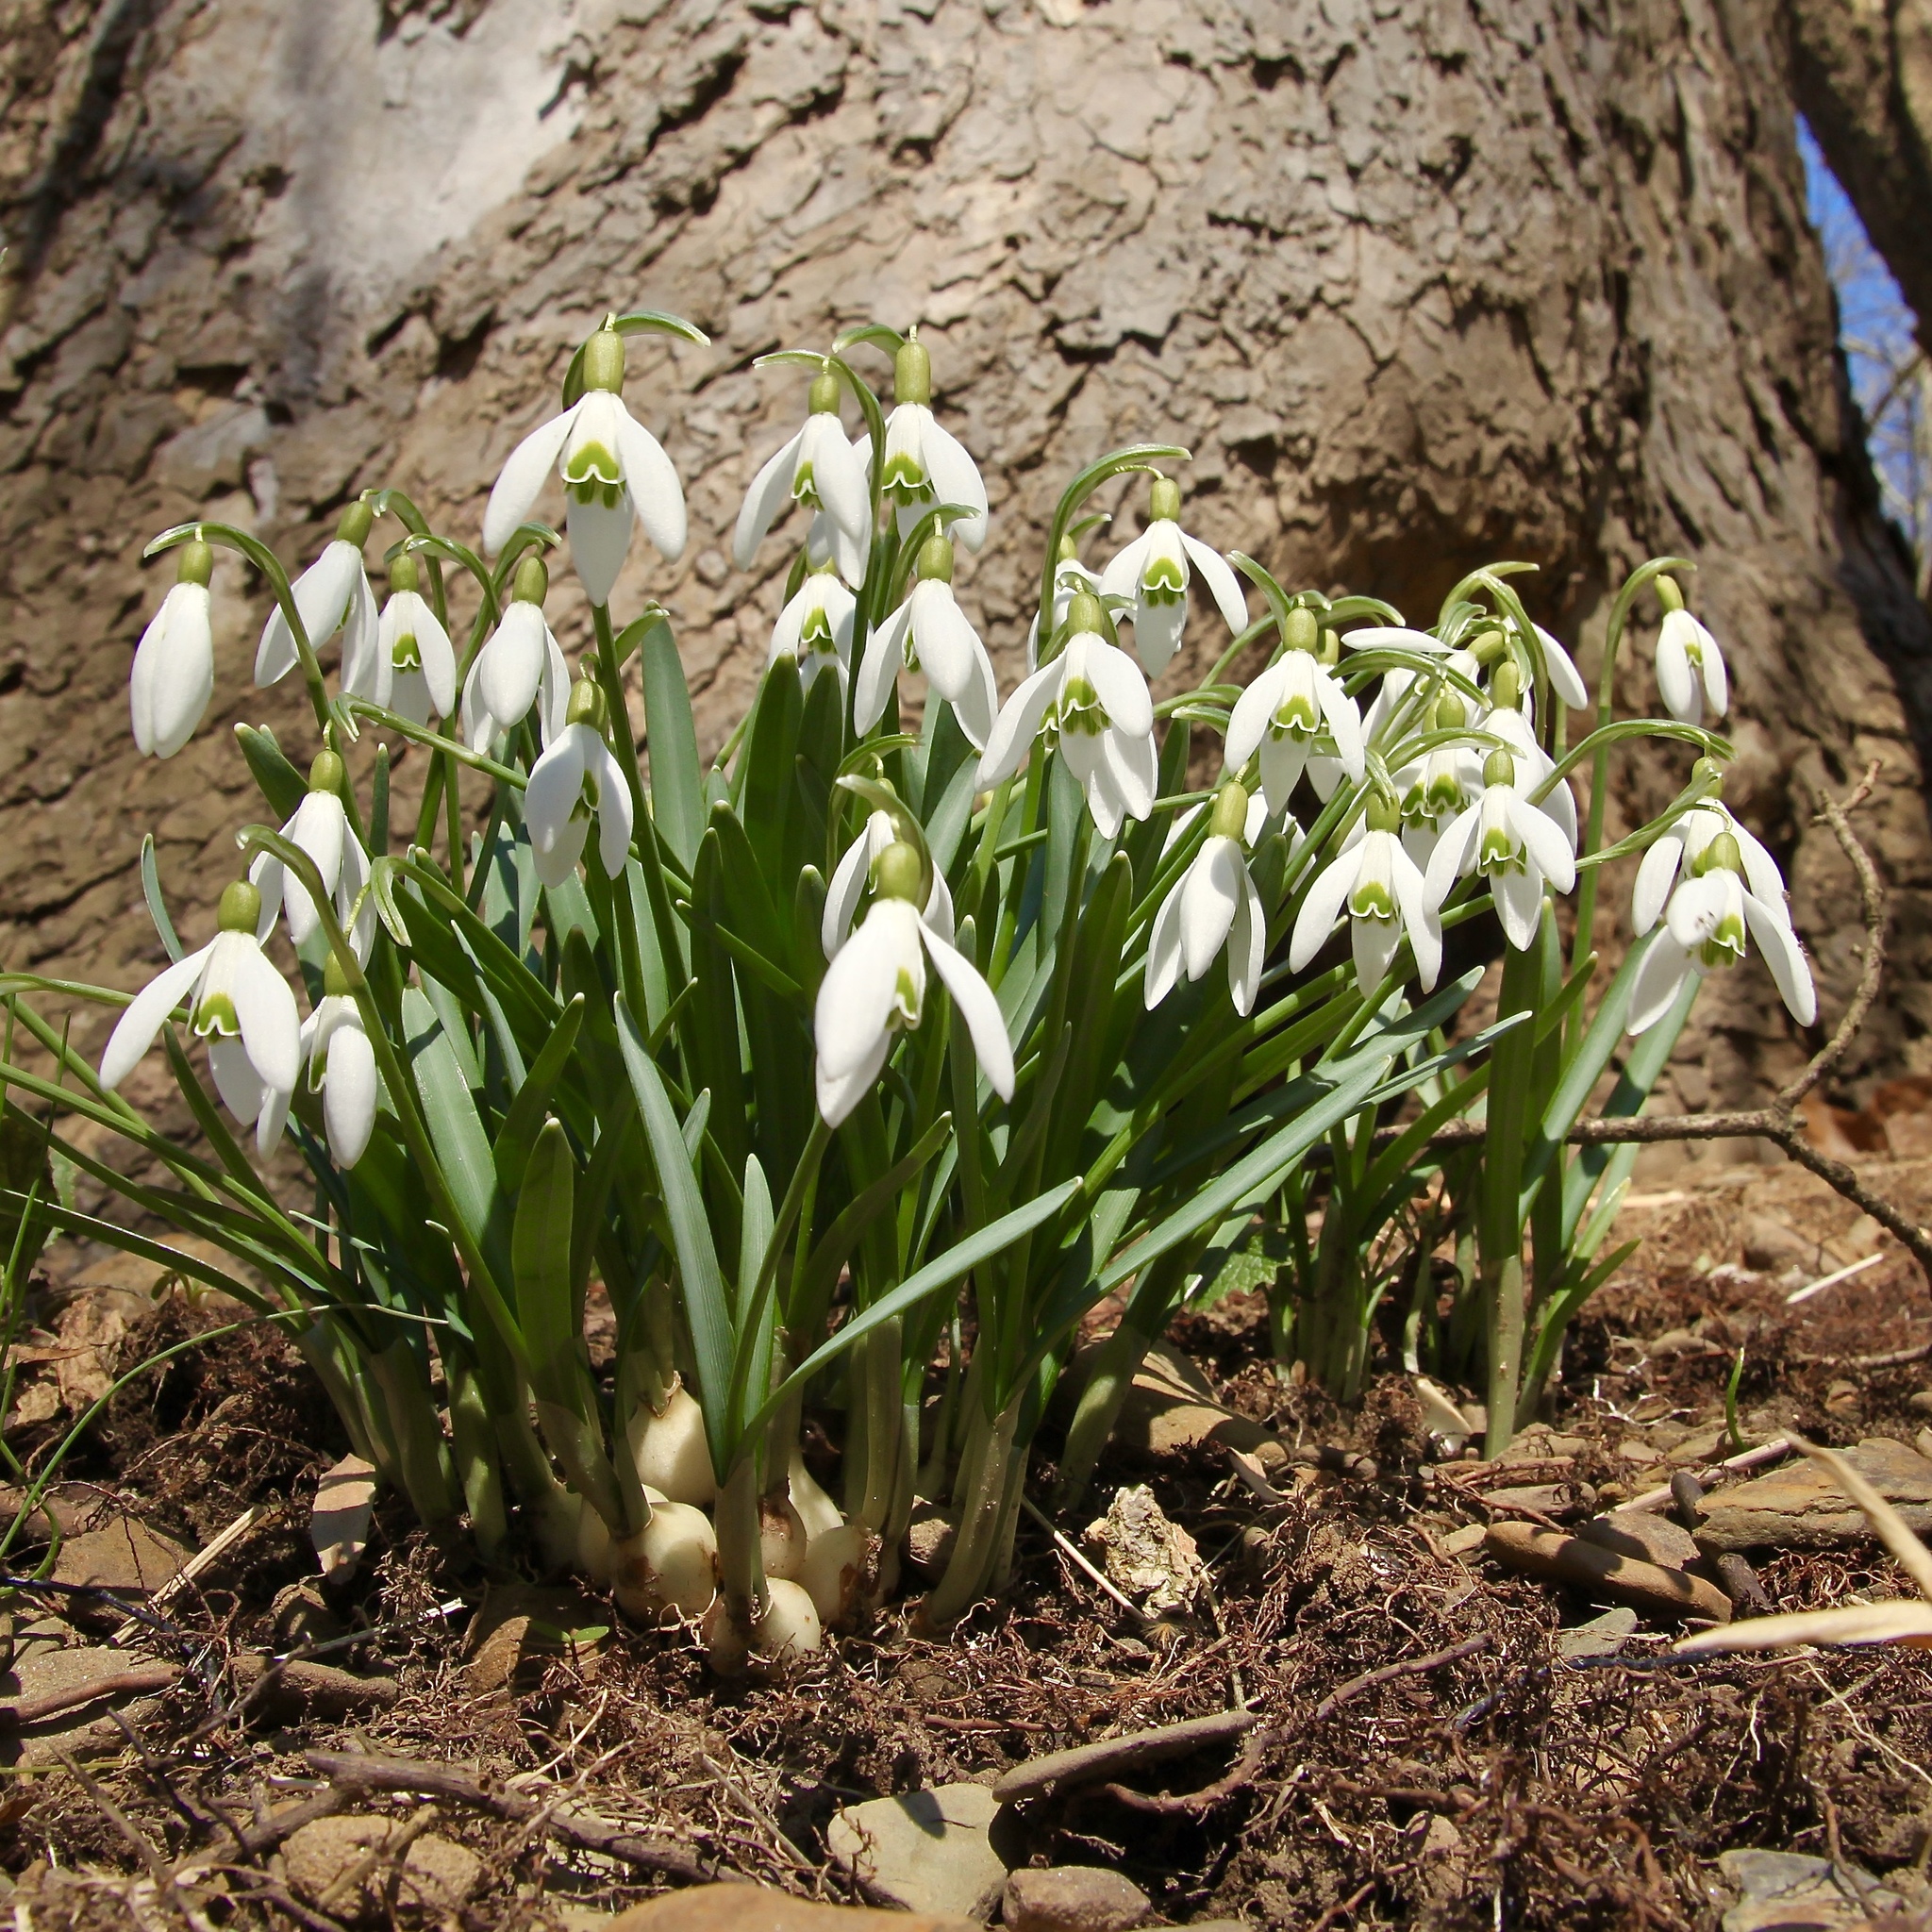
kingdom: Plantae
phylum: Tracheophyta
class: Liliopsida
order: Asparagales
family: Amaryllidaceae
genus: Galanthus
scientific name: Galanthus nivalis
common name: Snowdrop
